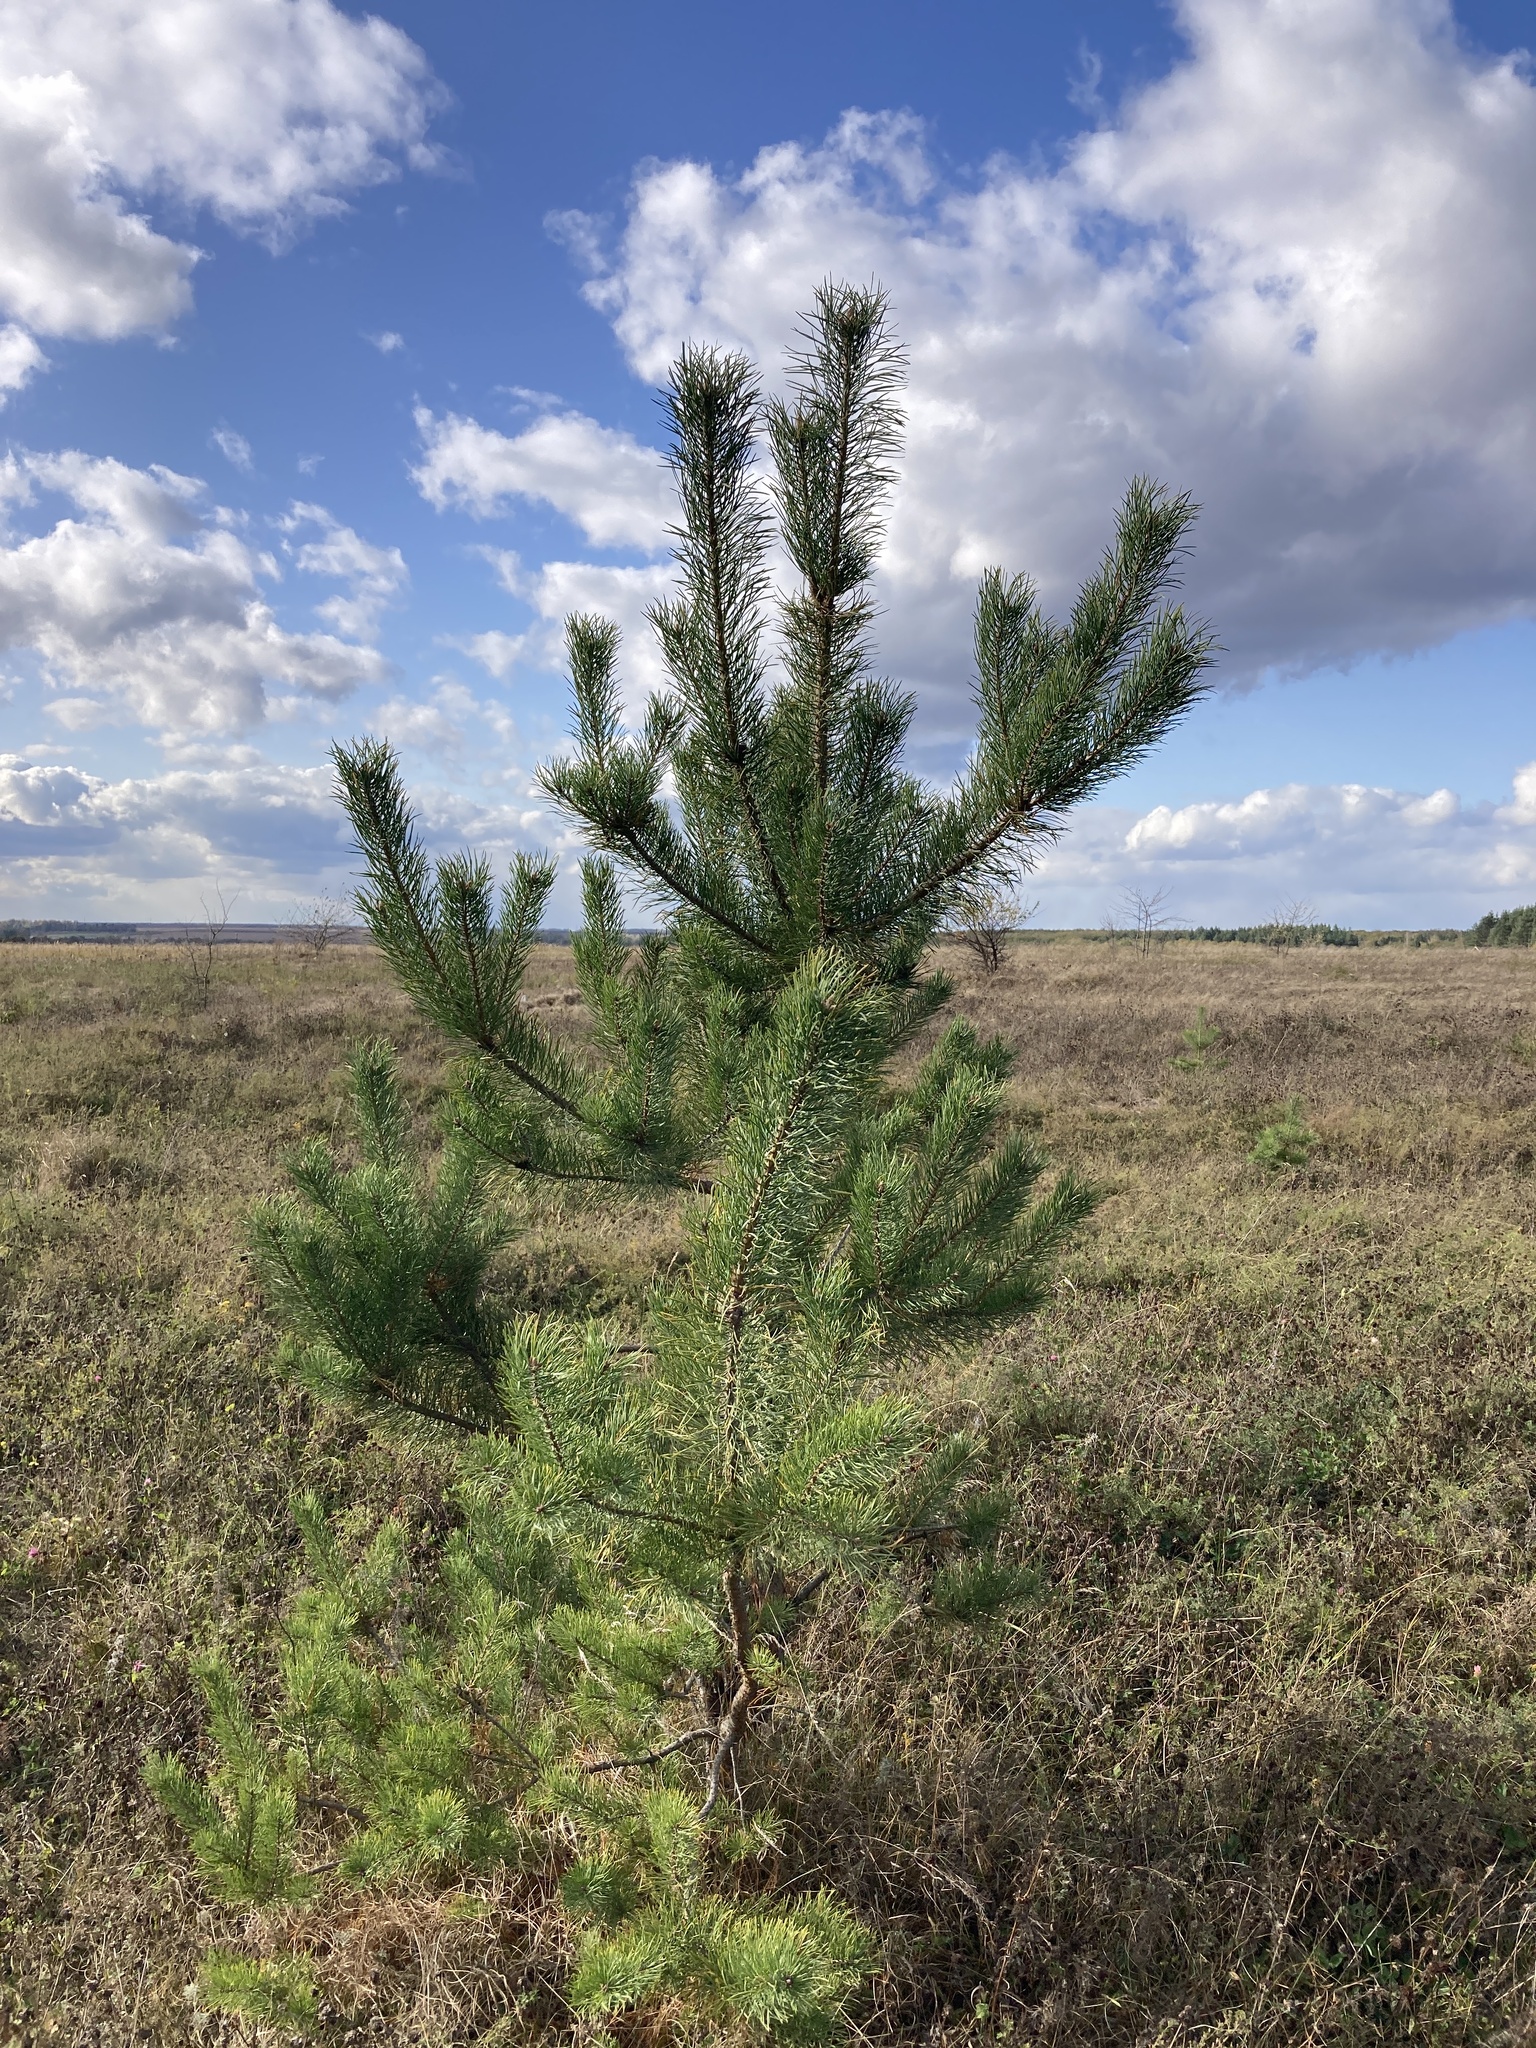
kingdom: Plantae
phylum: Tracheophyta
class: Pinopsida
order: Pinales
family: Pinaceae
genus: Pinus
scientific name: Pinus sylvestris
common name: Scots pine
